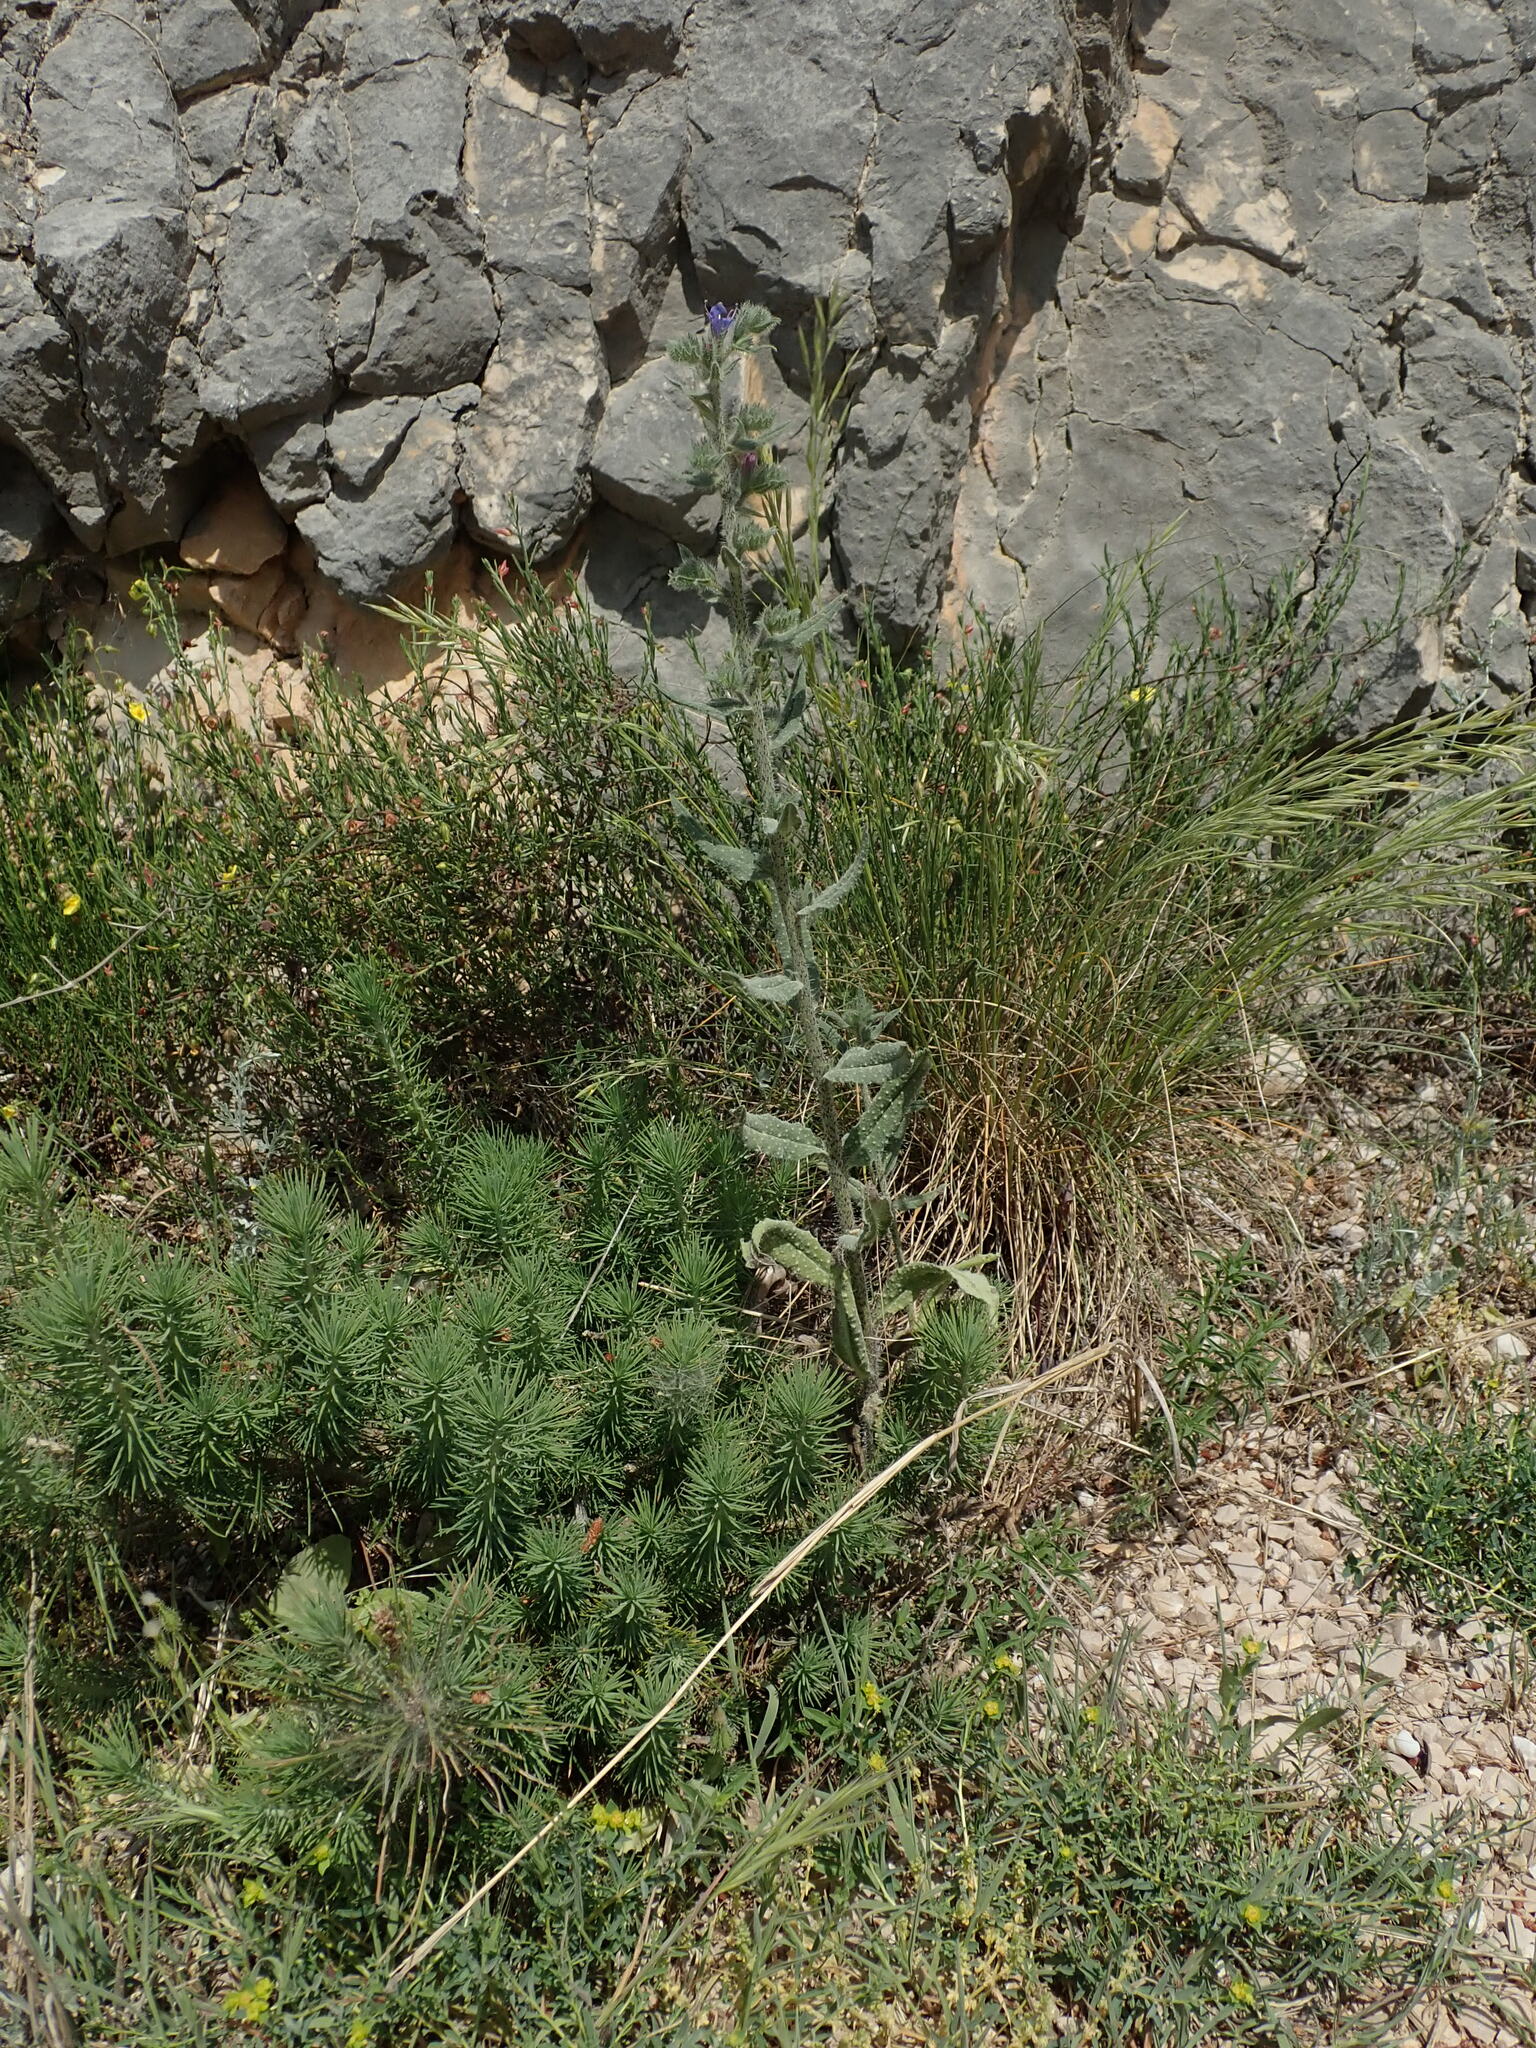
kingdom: Plantae
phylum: Tracheophyta
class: Magnoliopsida
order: Boraginales
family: Boraginaceae
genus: Echium
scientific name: Echium vulgare
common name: Common viper's bugloss
